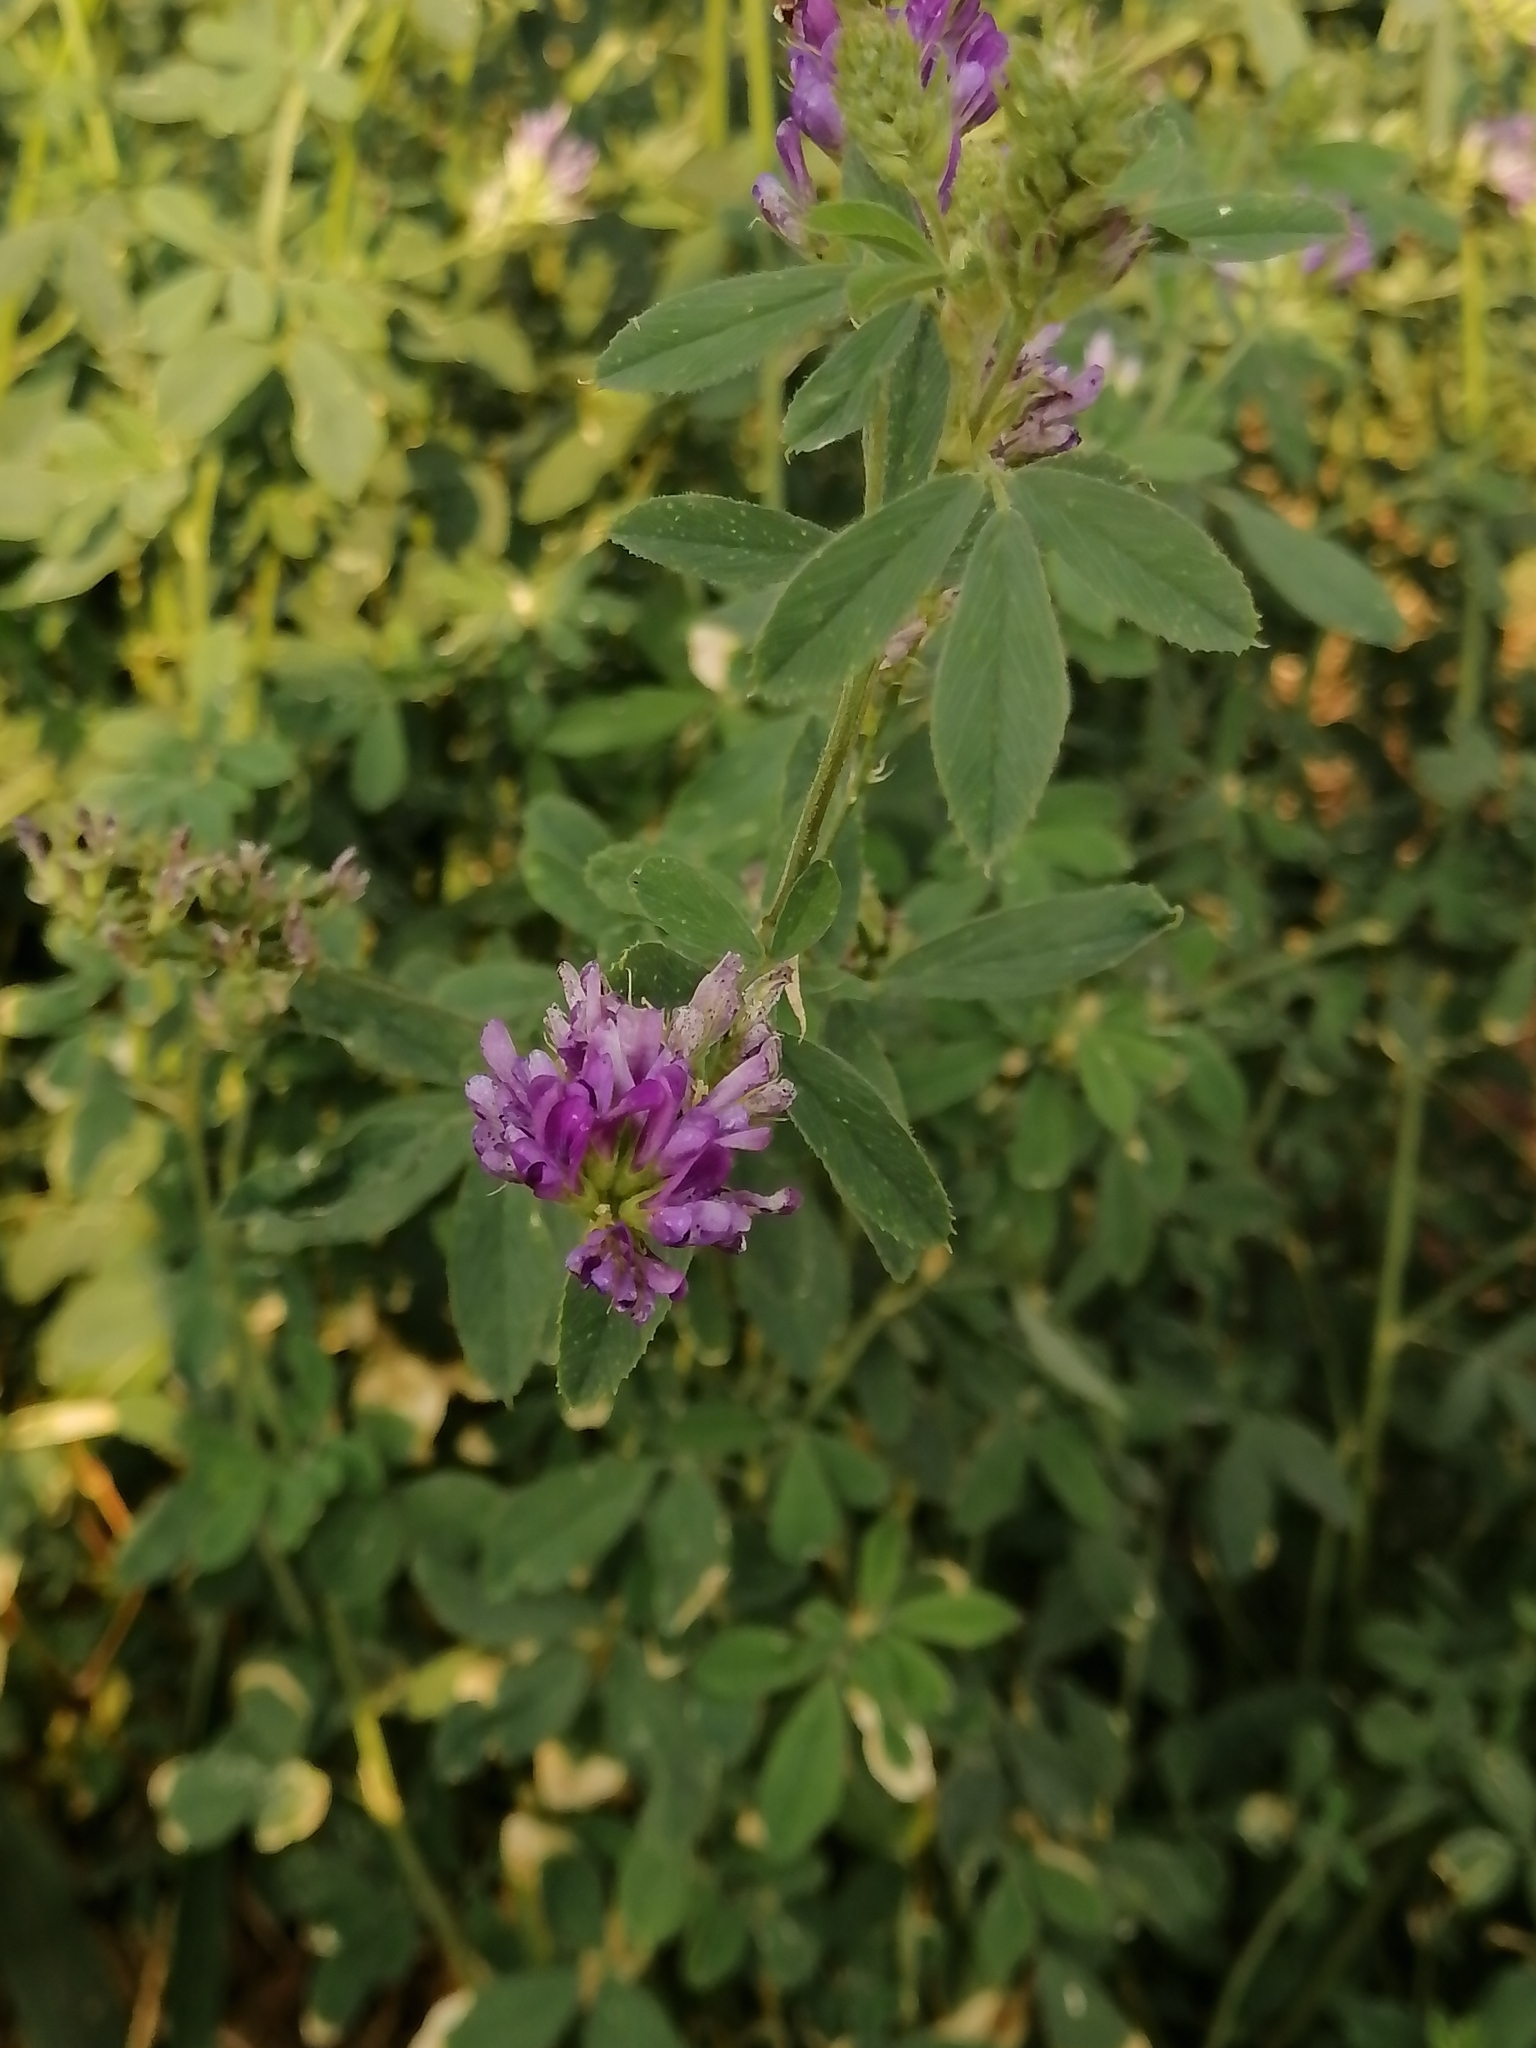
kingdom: Plantae
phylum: Tracheophyta
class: Magnoliopsida
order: Fabales
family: Fabaceae
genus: Medicago
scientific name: Medicago sativa
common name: Alfalfa
